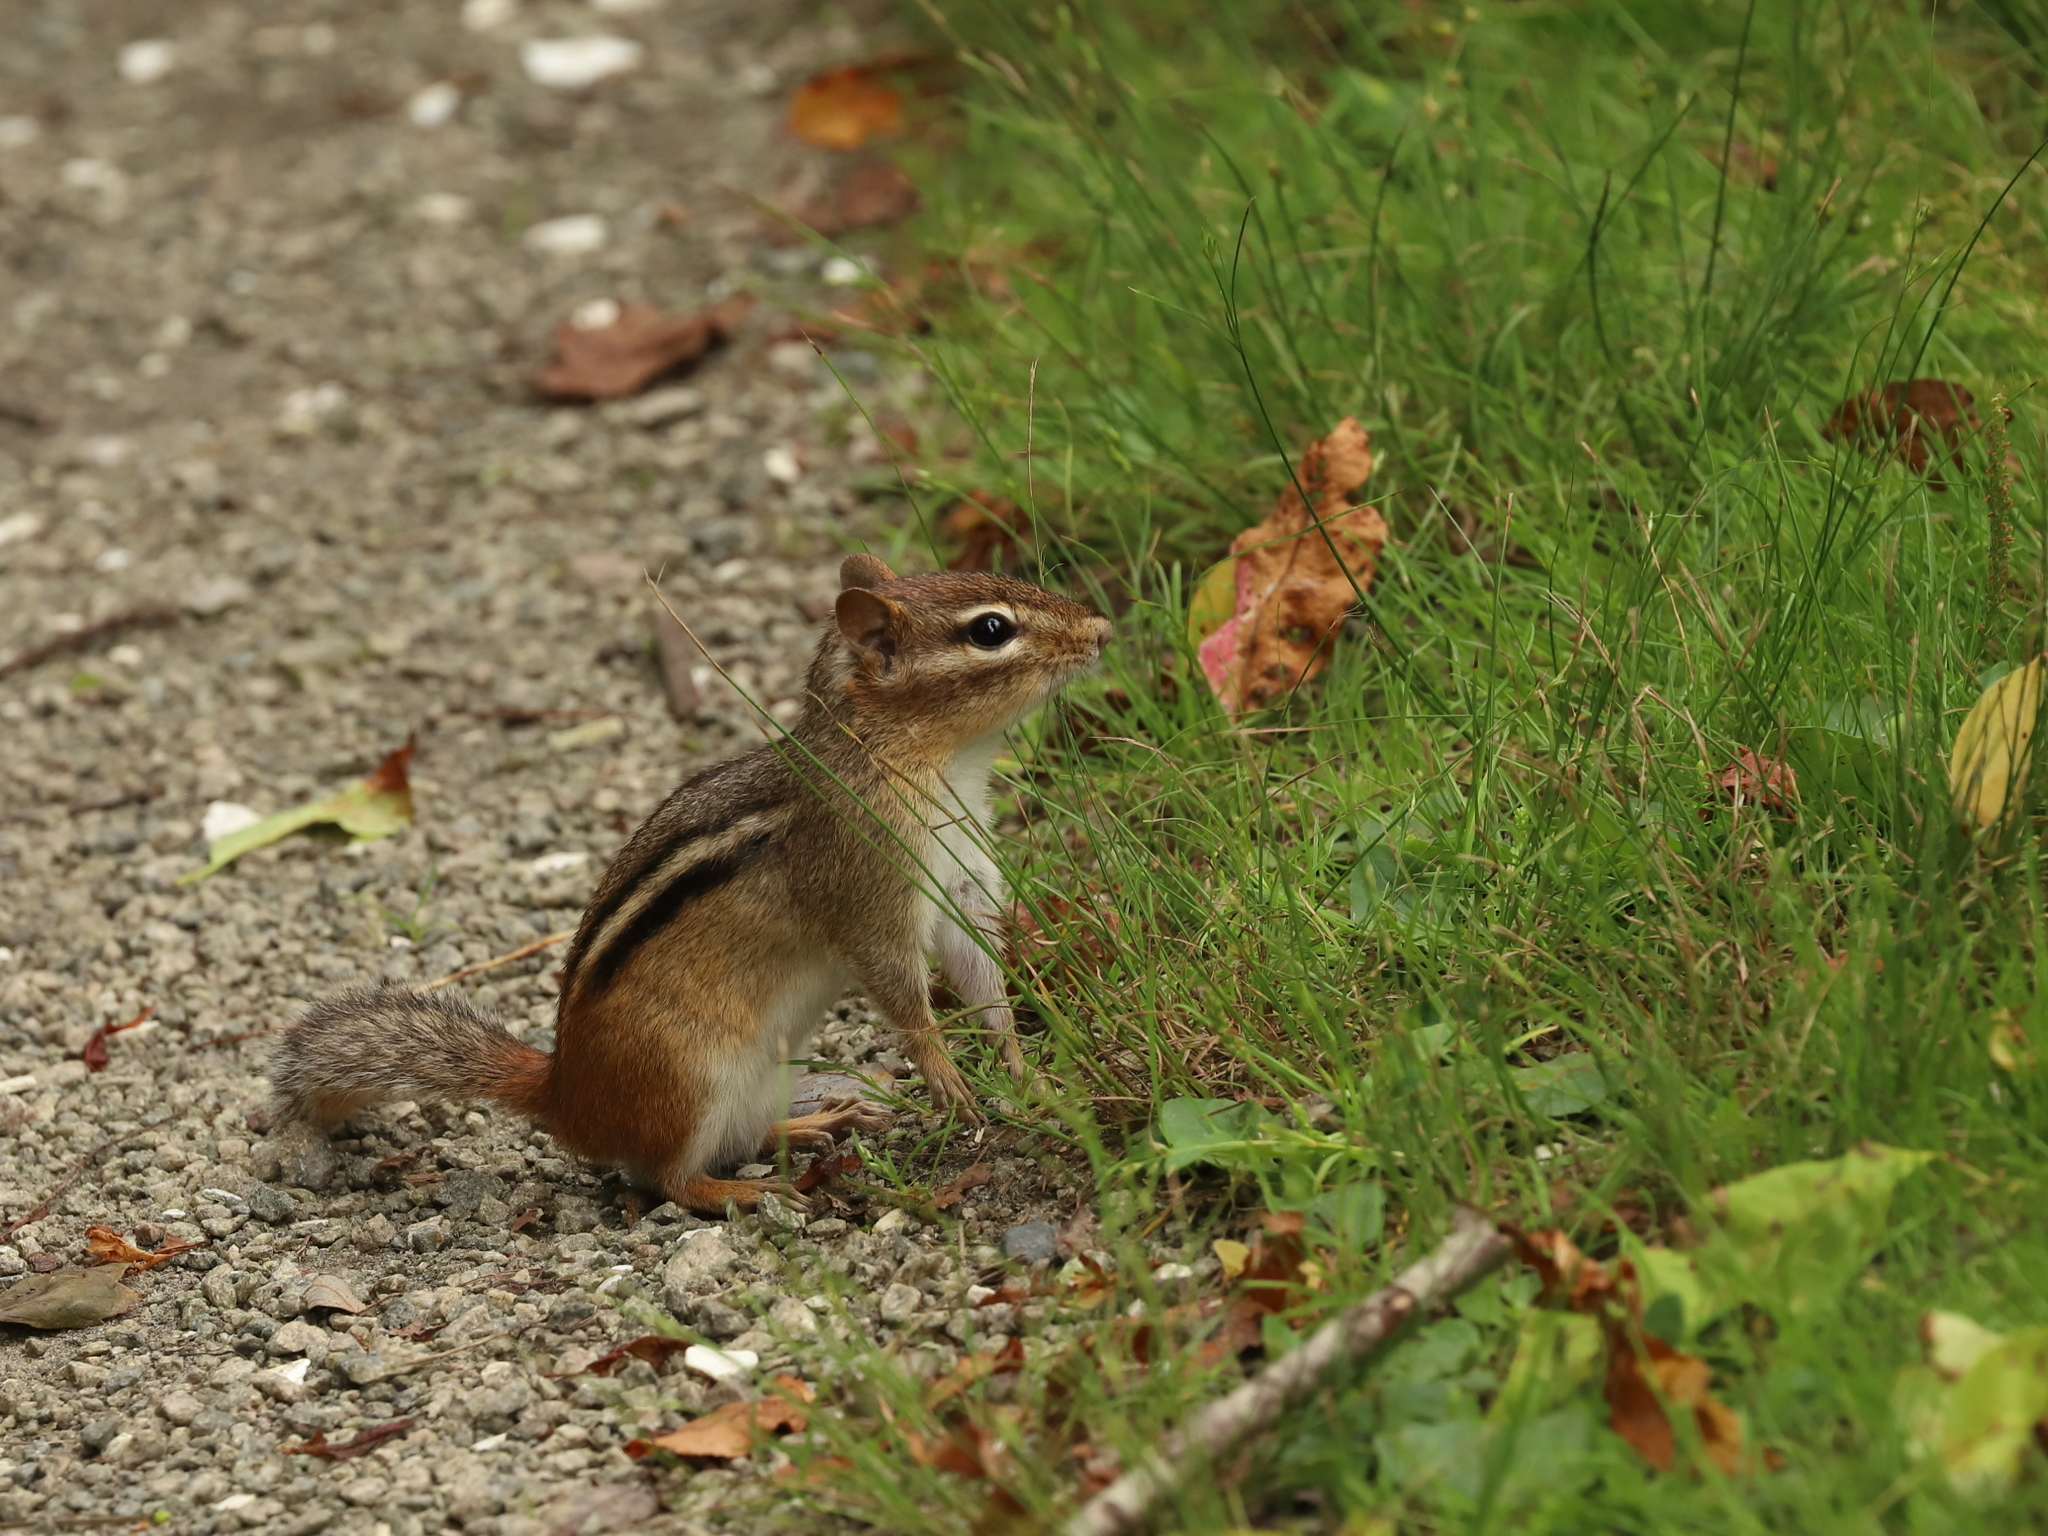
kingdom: Animalia
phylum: Chordata
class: Mammalia
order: Rodentia
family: Sciuridae
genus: Tamias
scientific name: Tamias striatus
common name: Eastern chipmunk
